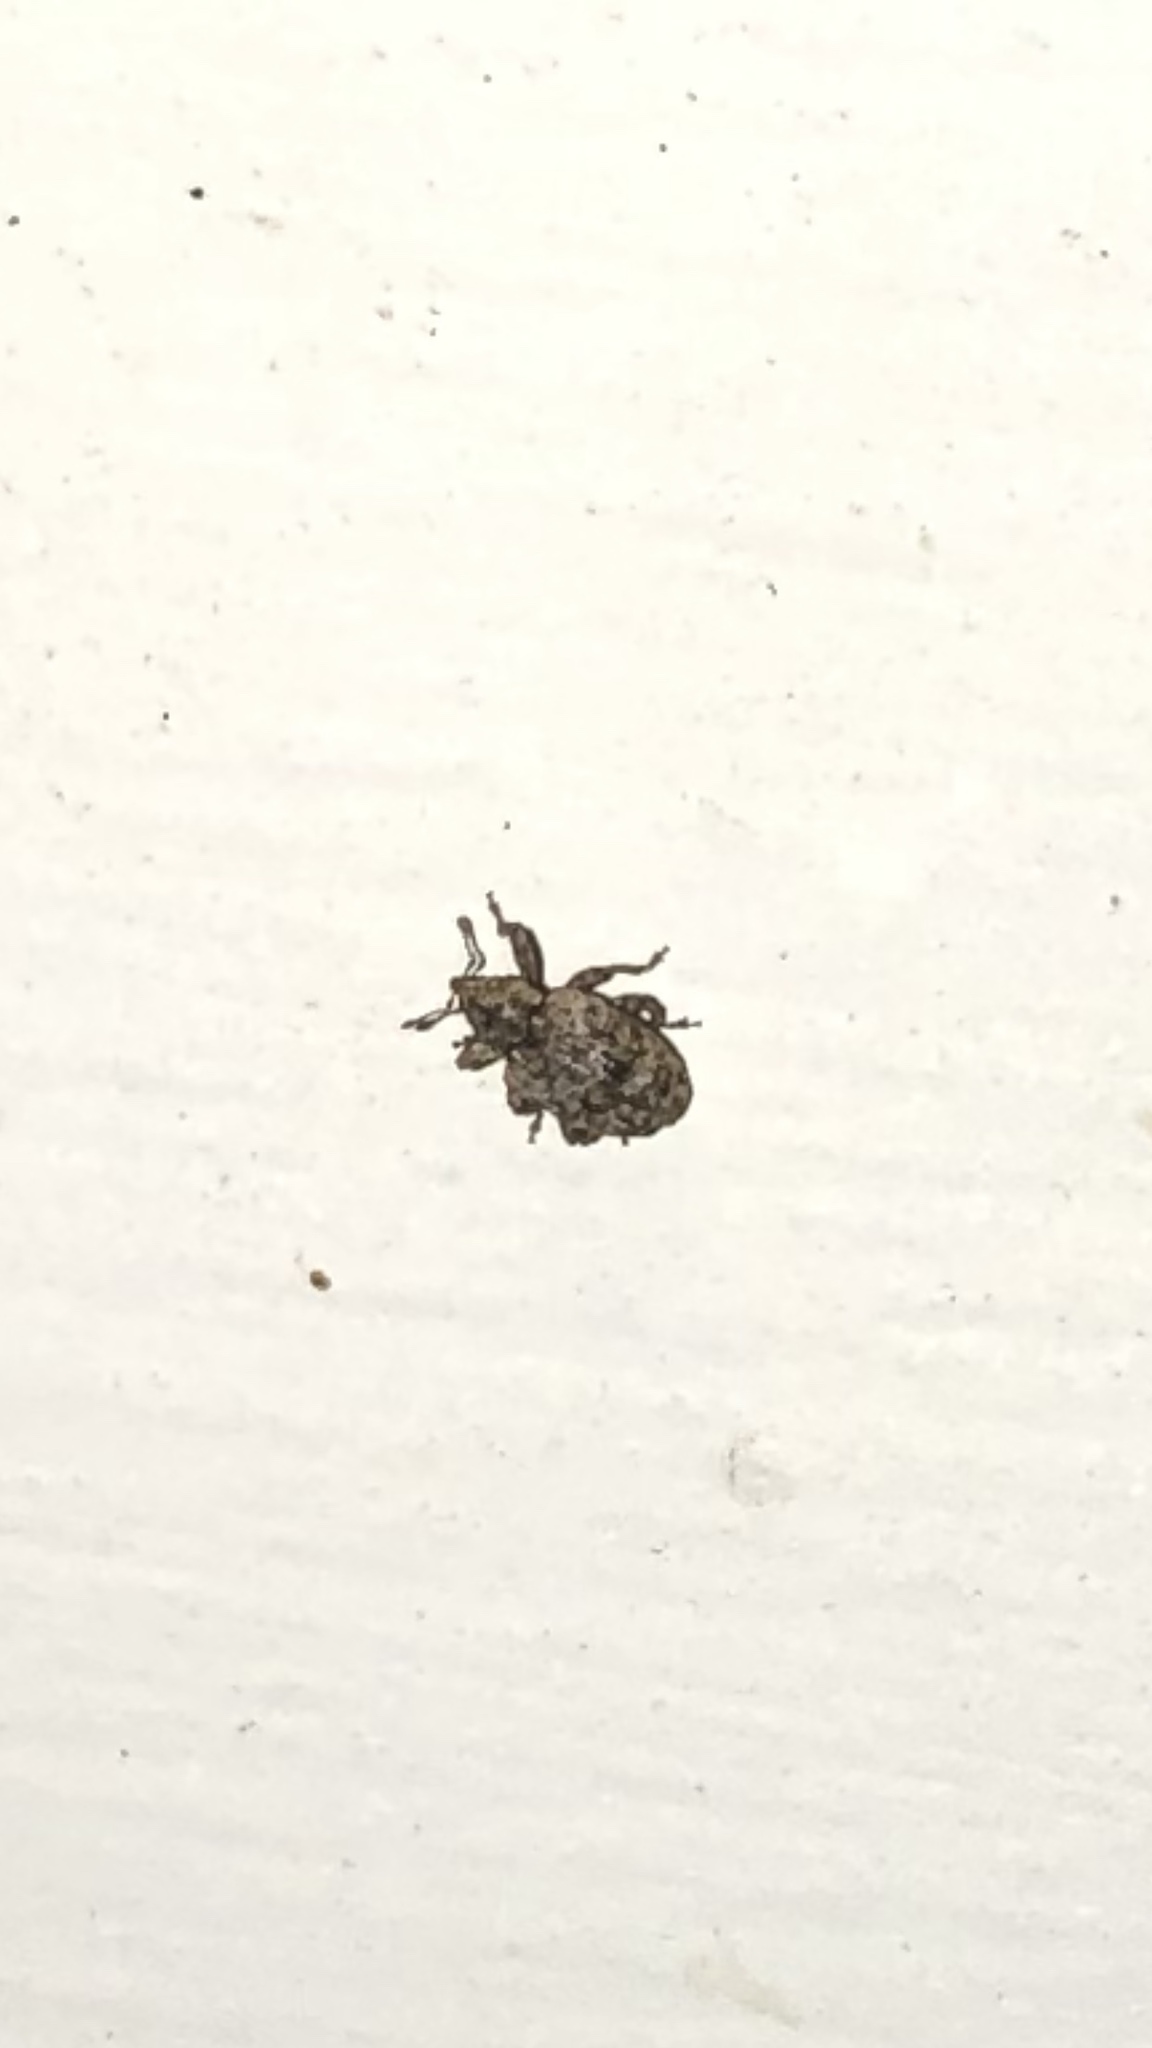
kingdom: Animalia
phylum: Arthropoda
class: Insecta
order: Coleoptera
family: Curculionidae
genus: Conotrachelus
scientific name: Conotrachelus recessus
